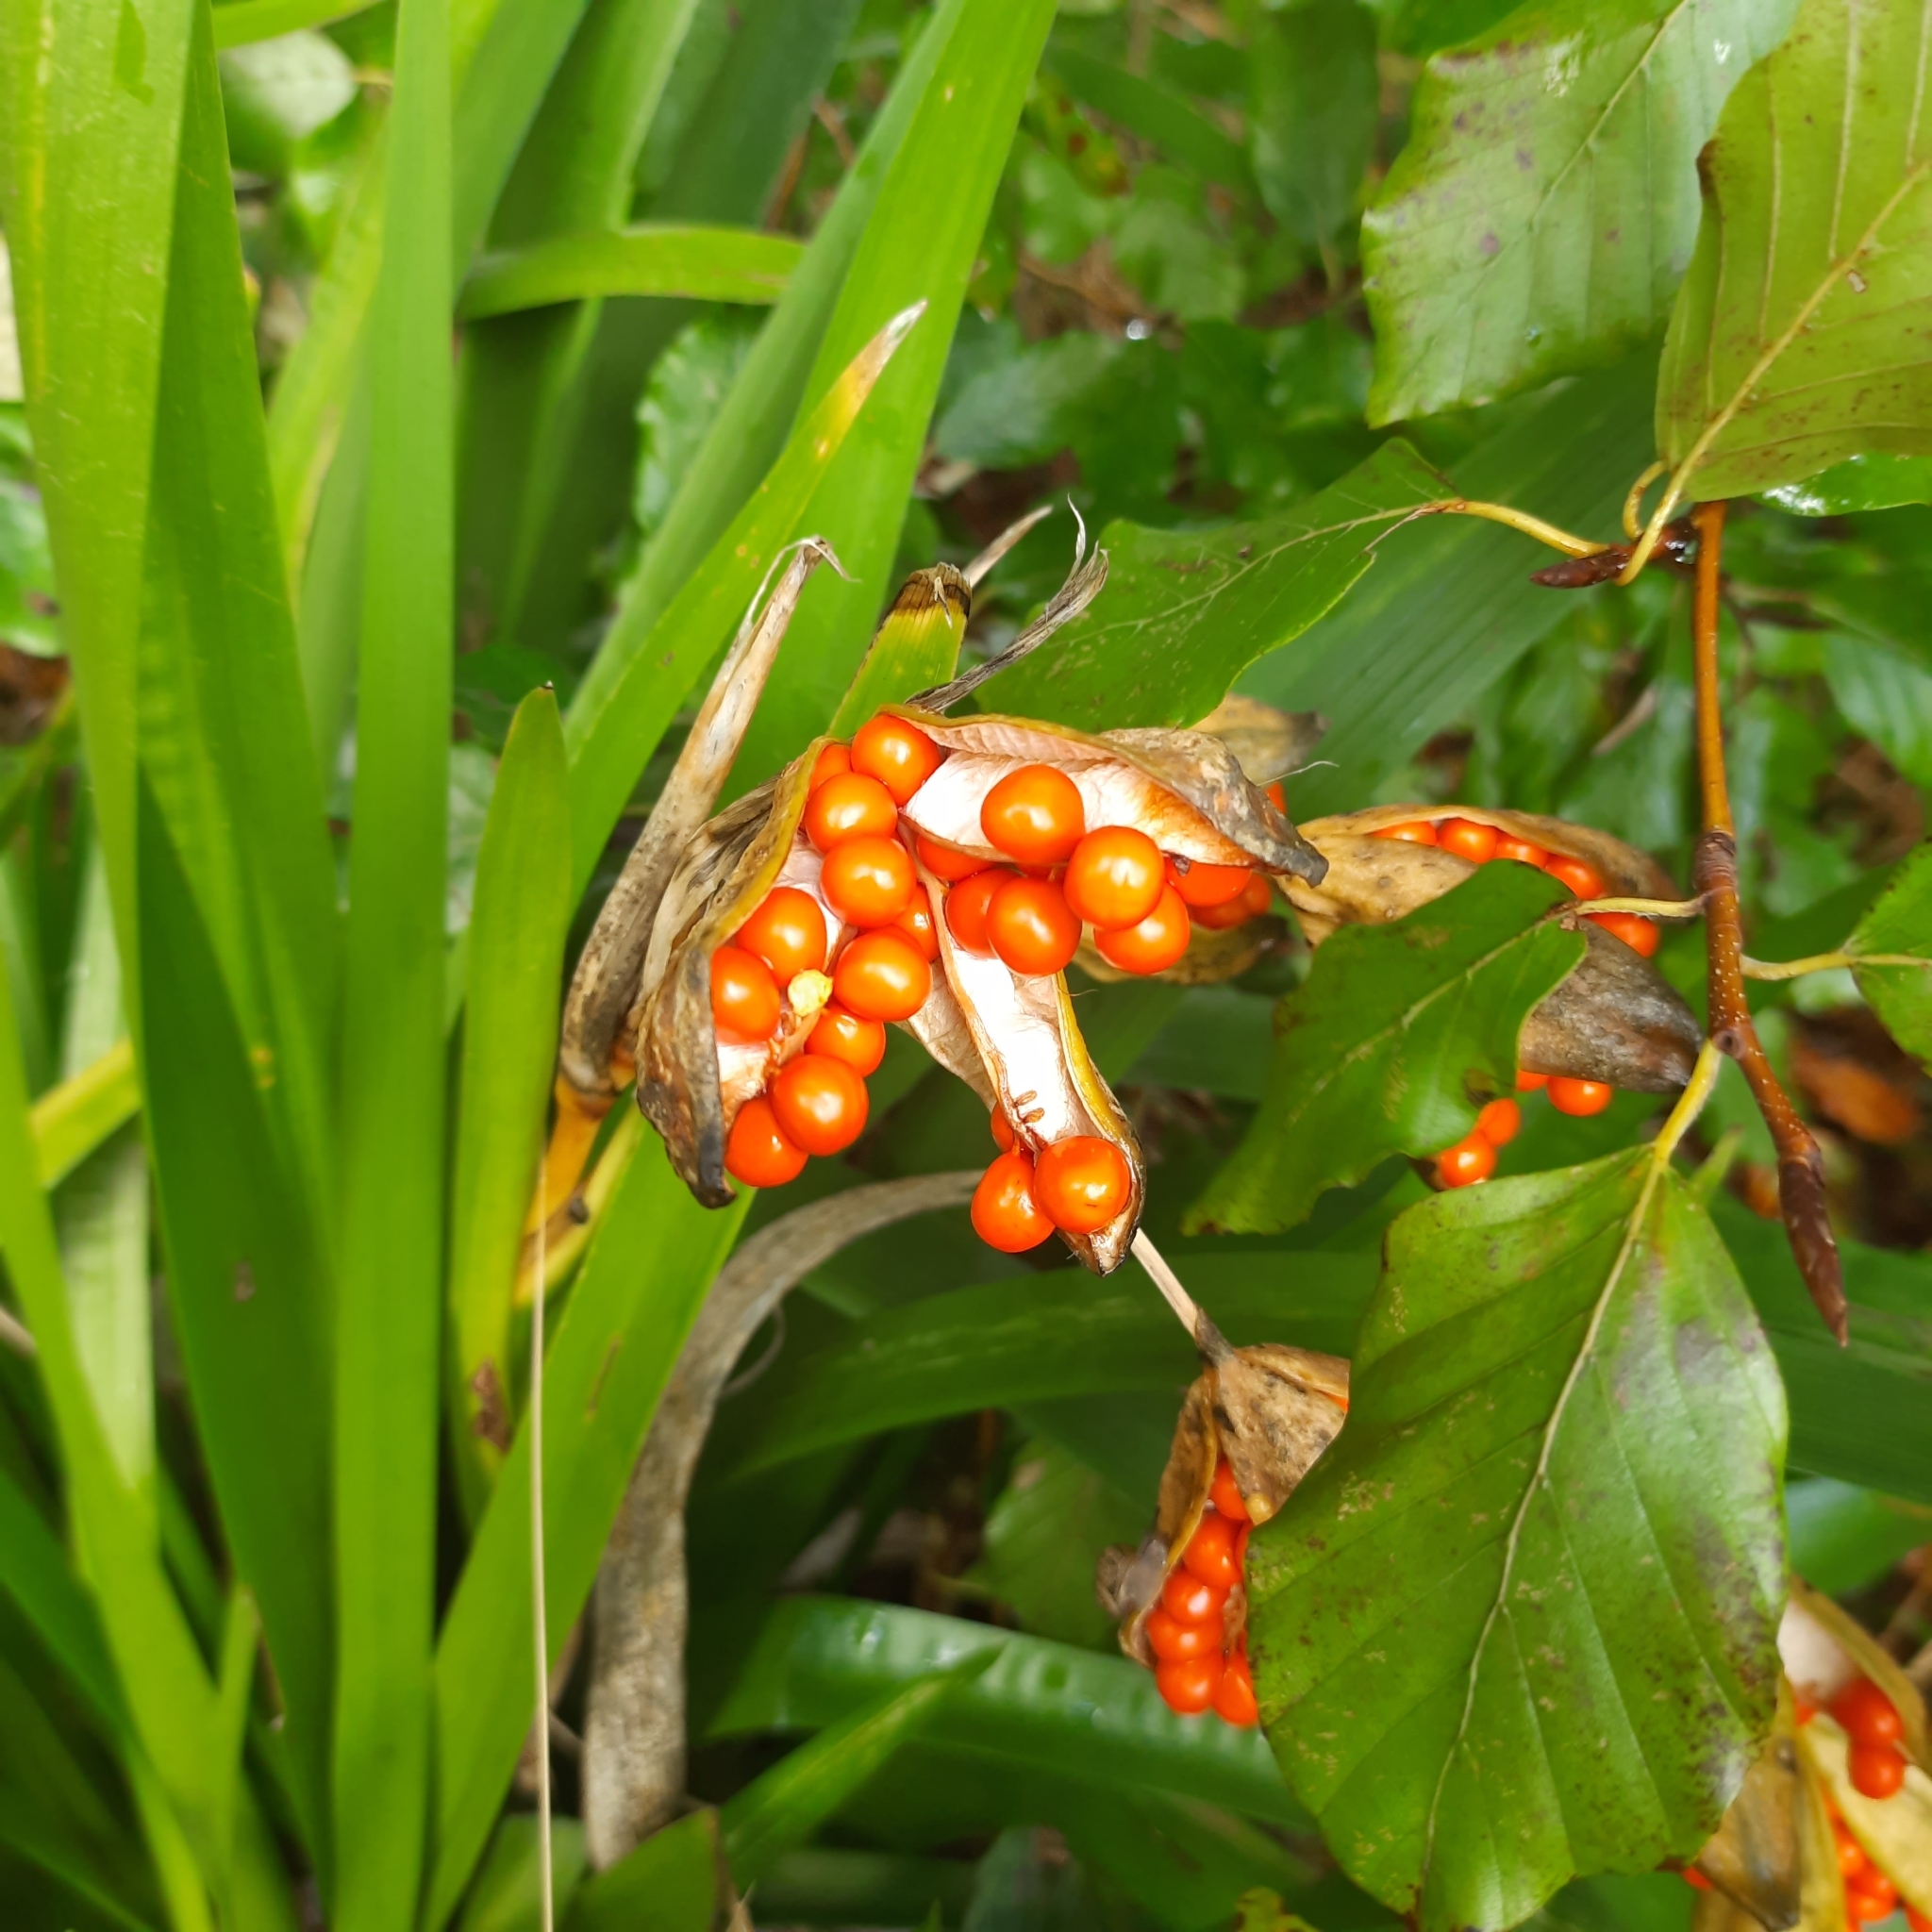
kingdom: Plantae
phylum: Tracheophyta
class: Liliopsida
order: Asparagales
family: Iridaceae
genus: Iris
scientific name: Iris foetidissima
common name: Stinking iris
